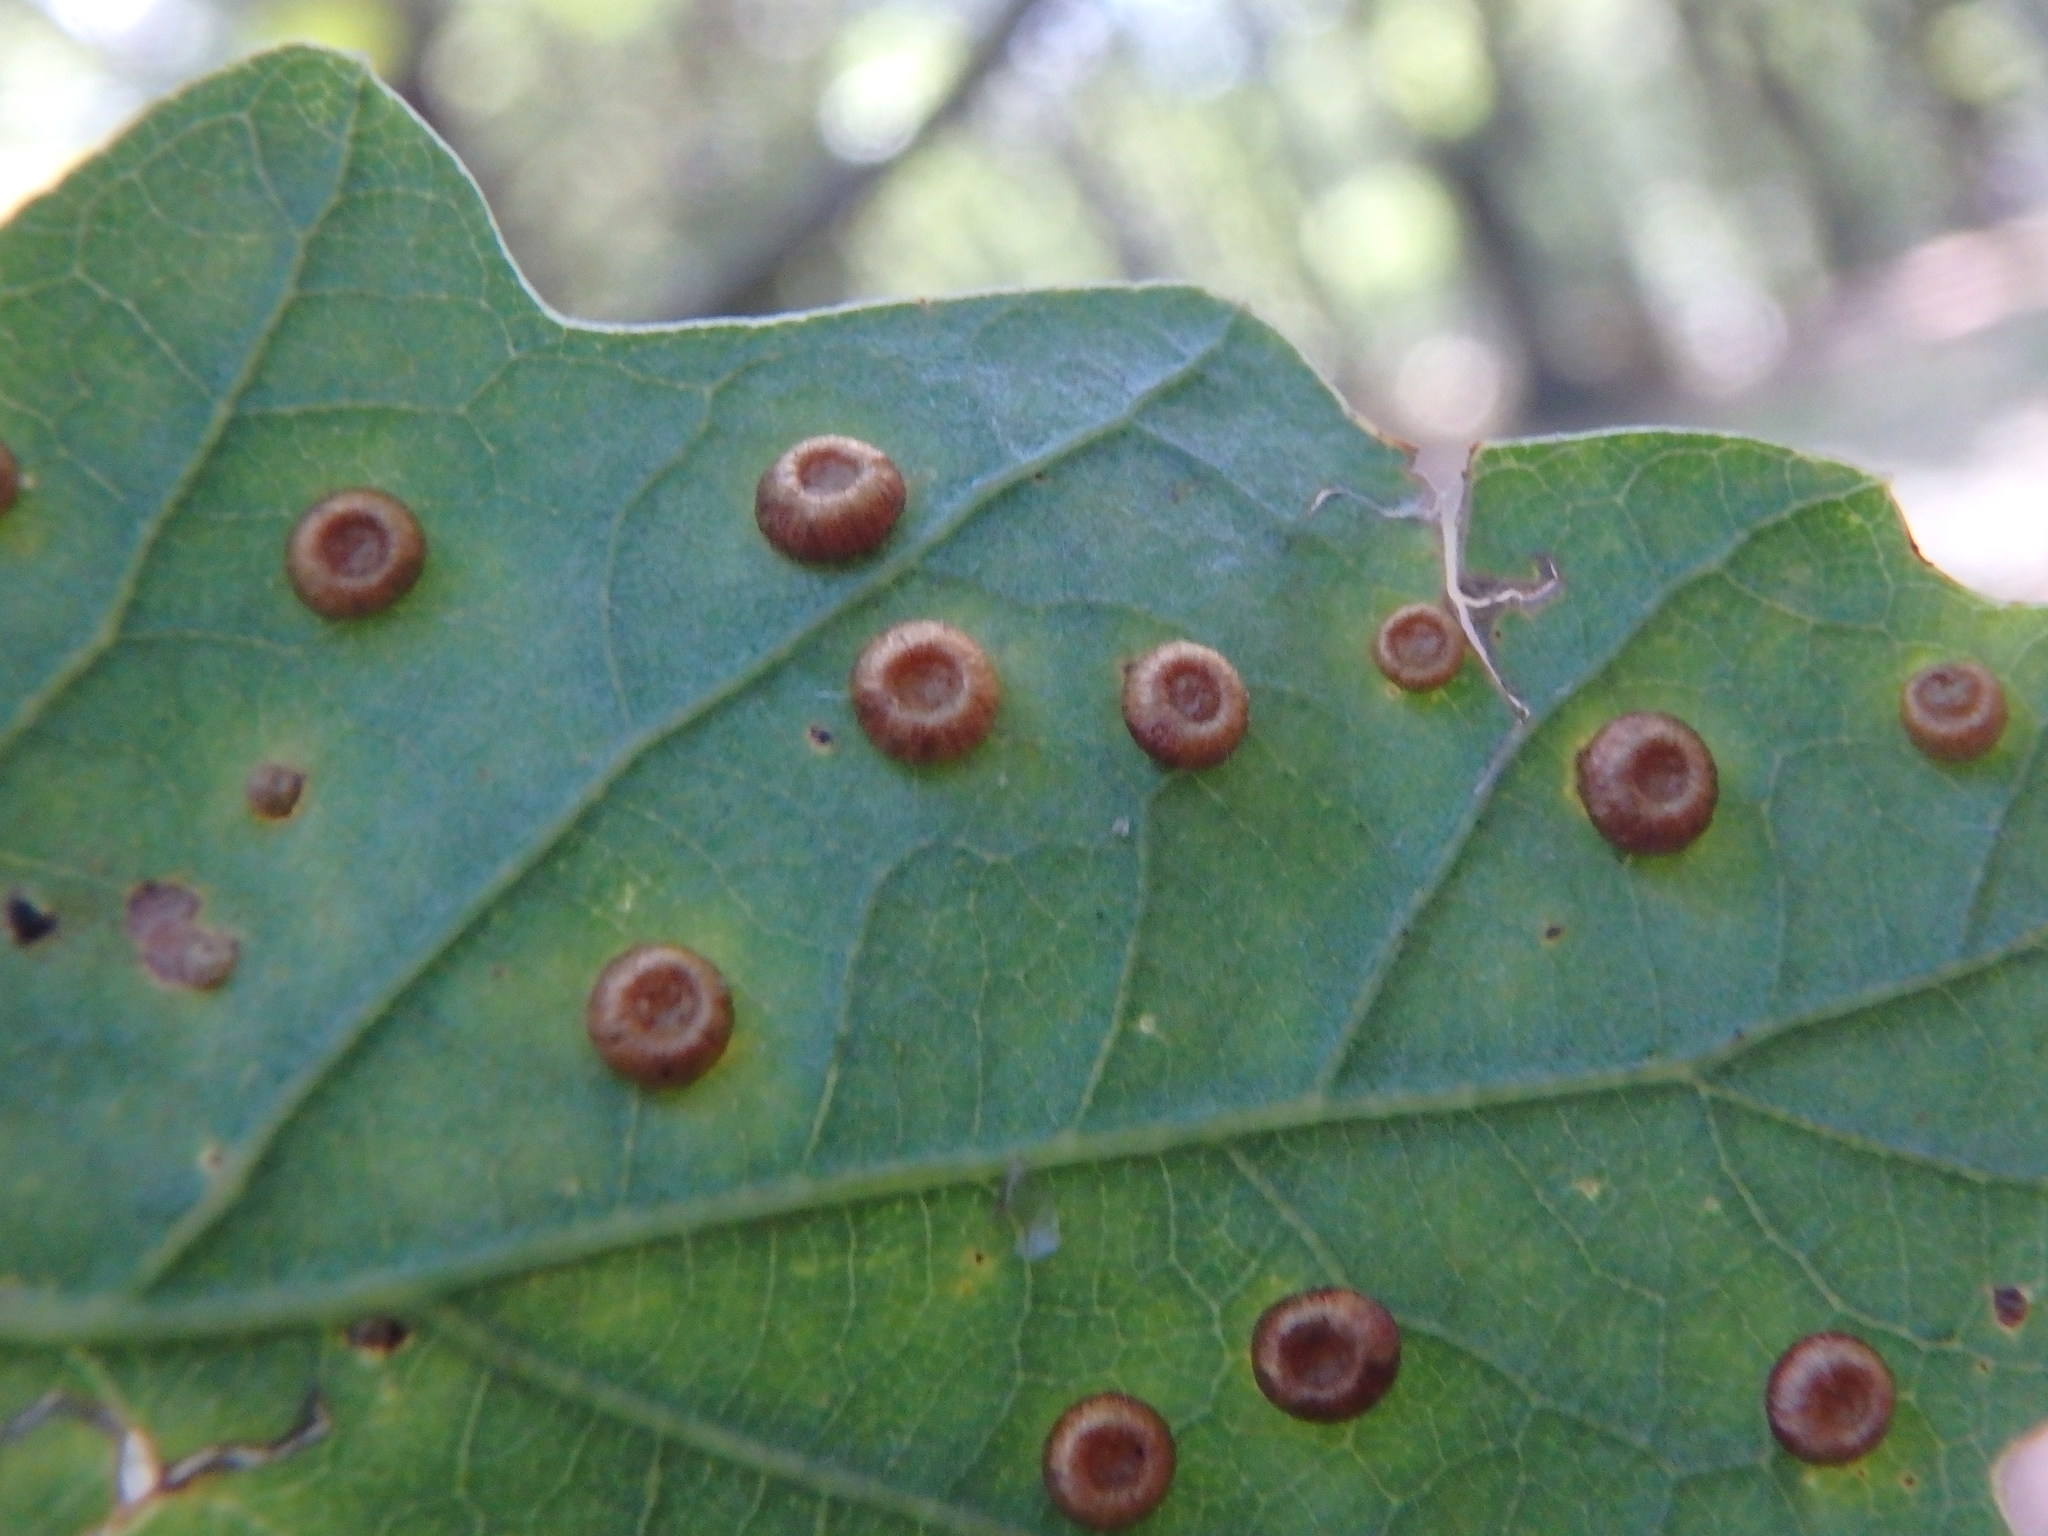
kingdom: Animalia
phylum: Arthropoda
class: Insecta
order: Hymenoptera
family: Cynipidae
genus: Neuroterus
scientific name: Neuroterus numismalis
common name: Silk-button spangle gall
